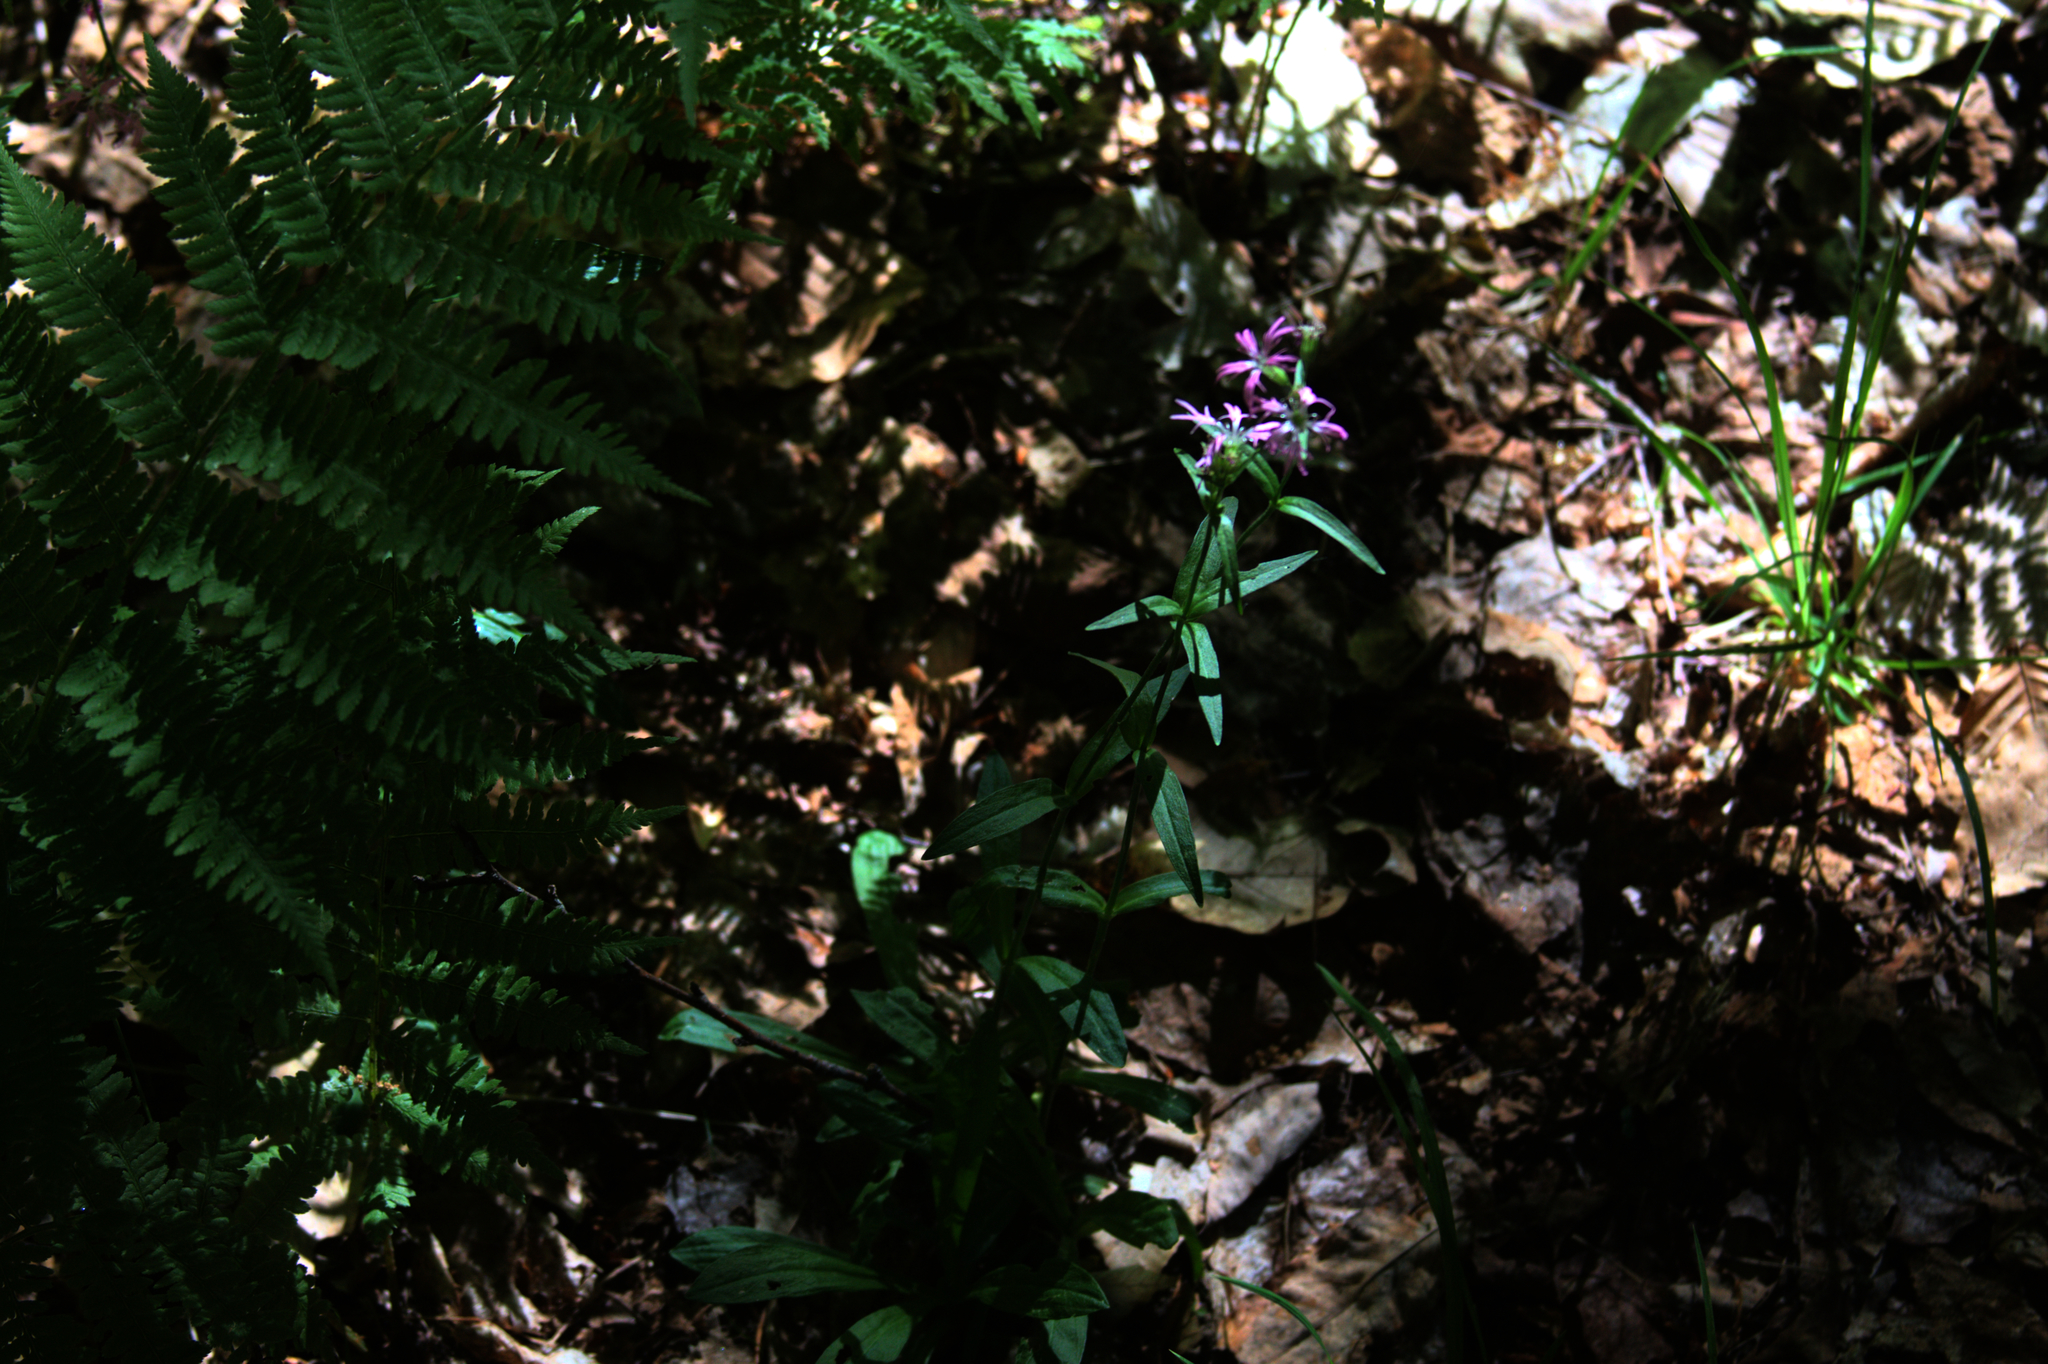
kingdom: Plantae
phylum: Tracheophyta
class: Magnoliopsida
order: Caryophyllales
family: Caryophyllaceae
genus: Silene
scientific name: Silene flos-cuculi
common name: Ragged-robin
